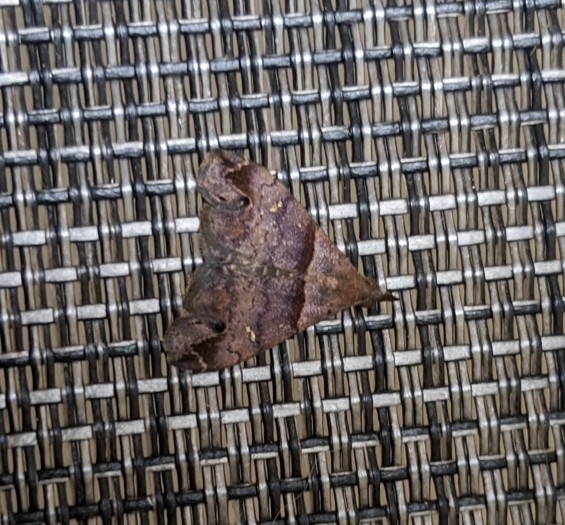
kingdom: Animalia
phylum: Arthropoda
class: Insecta
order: Lepidoptera
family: Erebidae
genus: Lascoria
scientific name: Lascoria ambigualis
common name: Ambiguous moth
